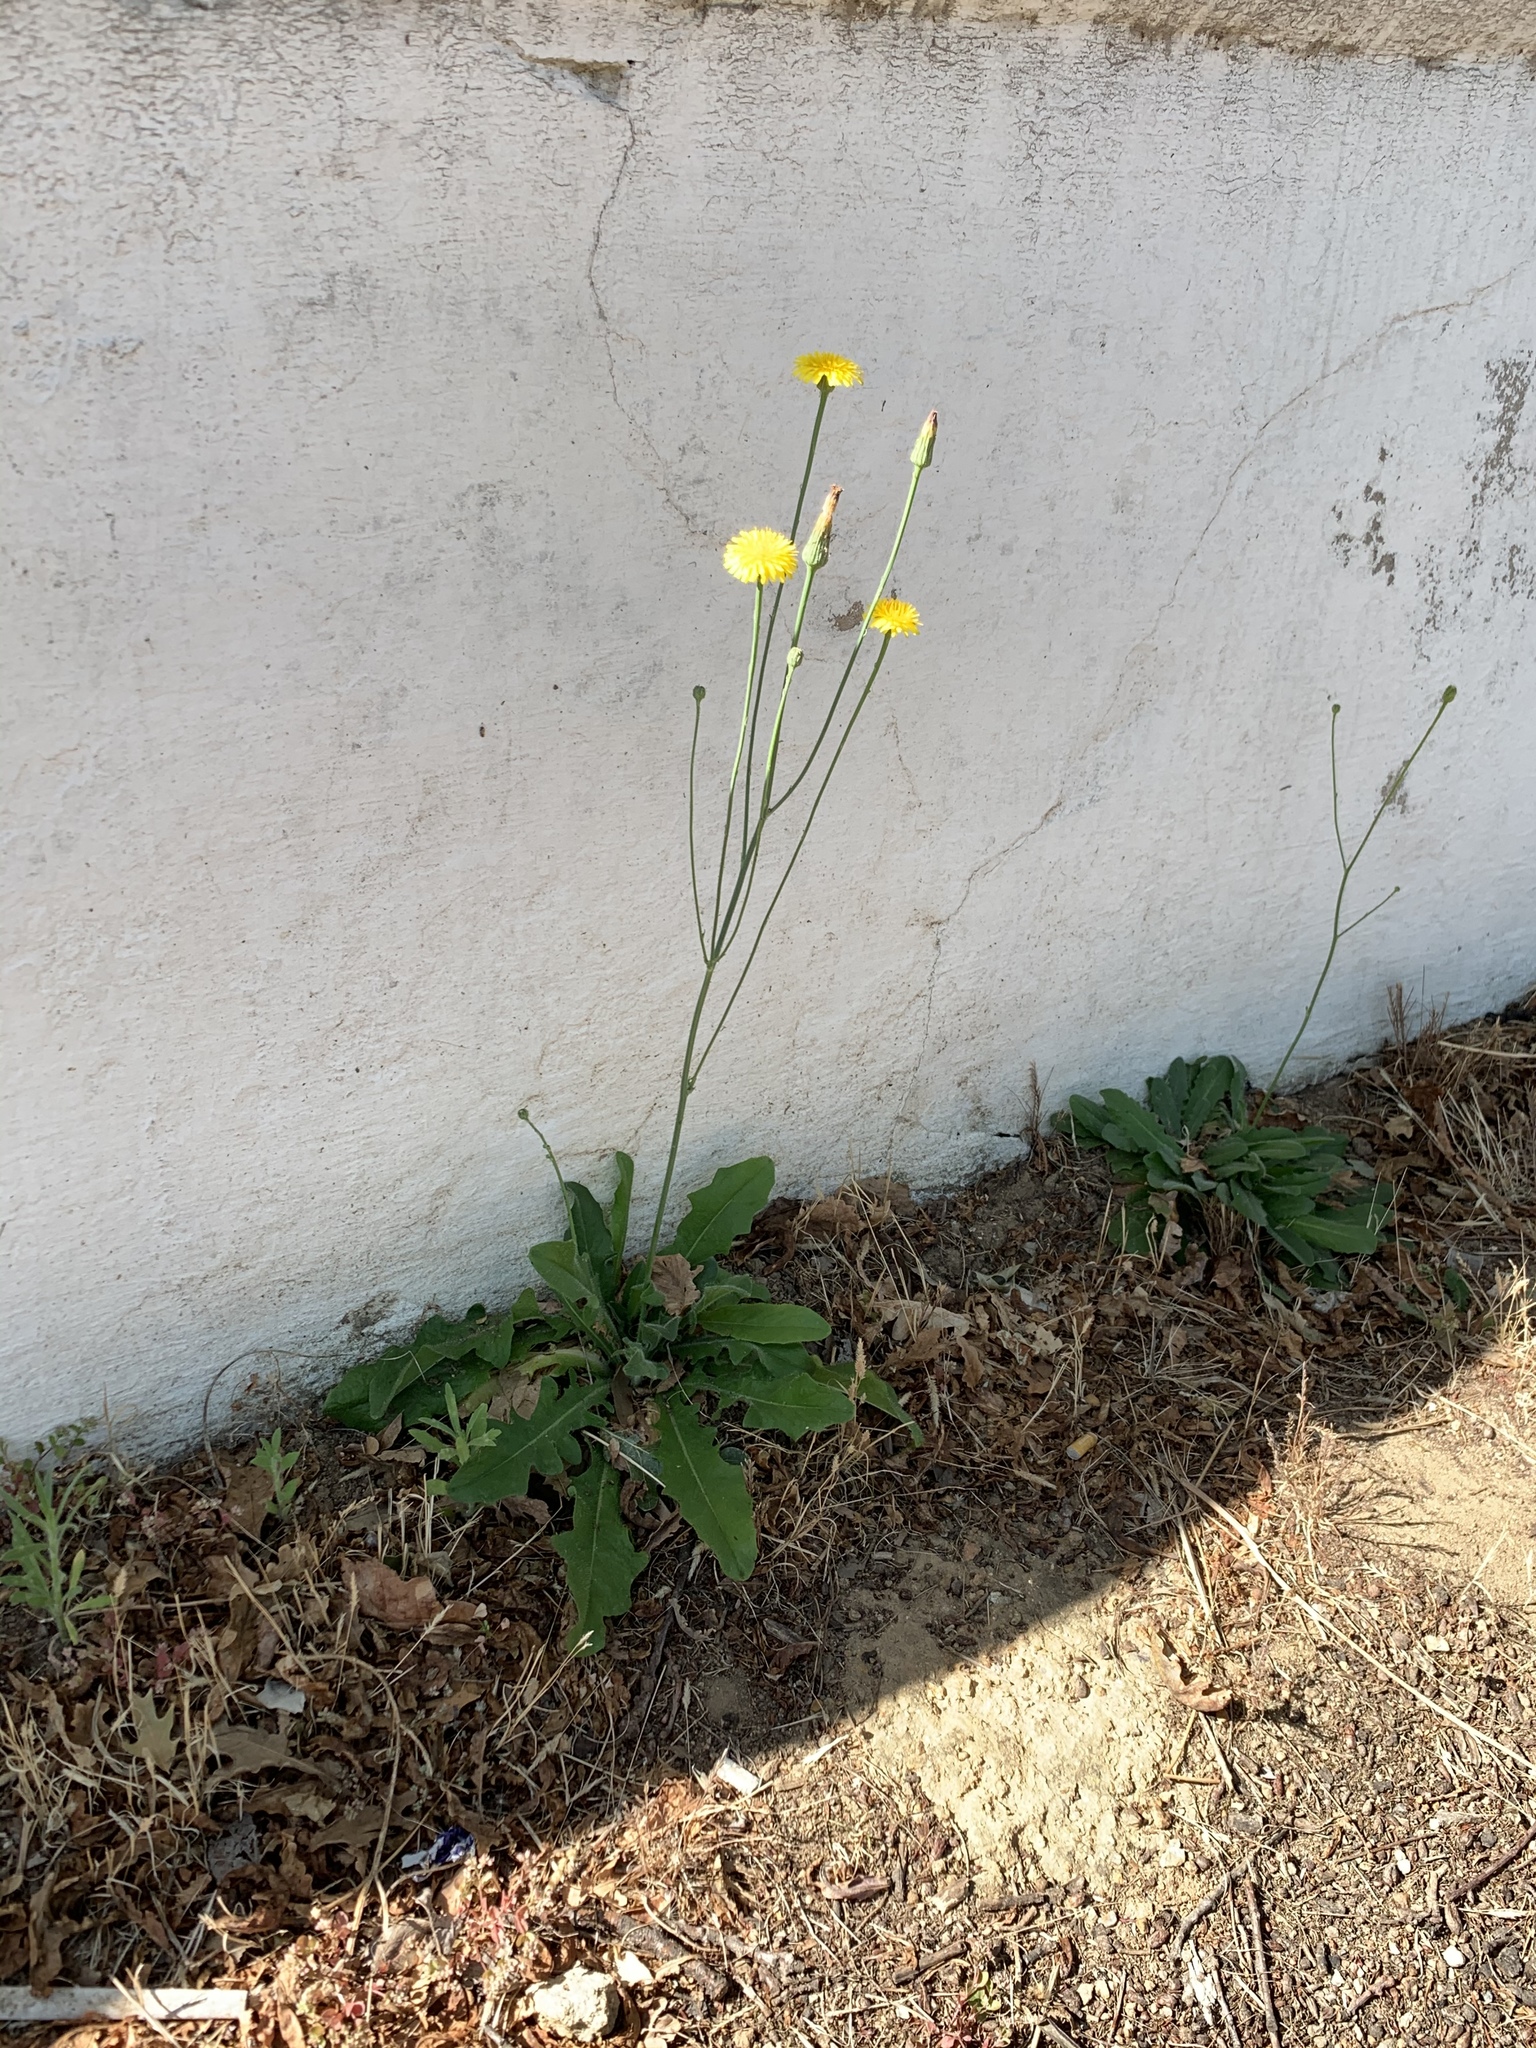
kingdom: Plantae
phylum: Tracheophyta
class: Magnoliopsida
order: Asterales
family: Asteraceae
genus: Hypochaeris
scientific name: Hypochaeris radicata
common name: Flatweed
